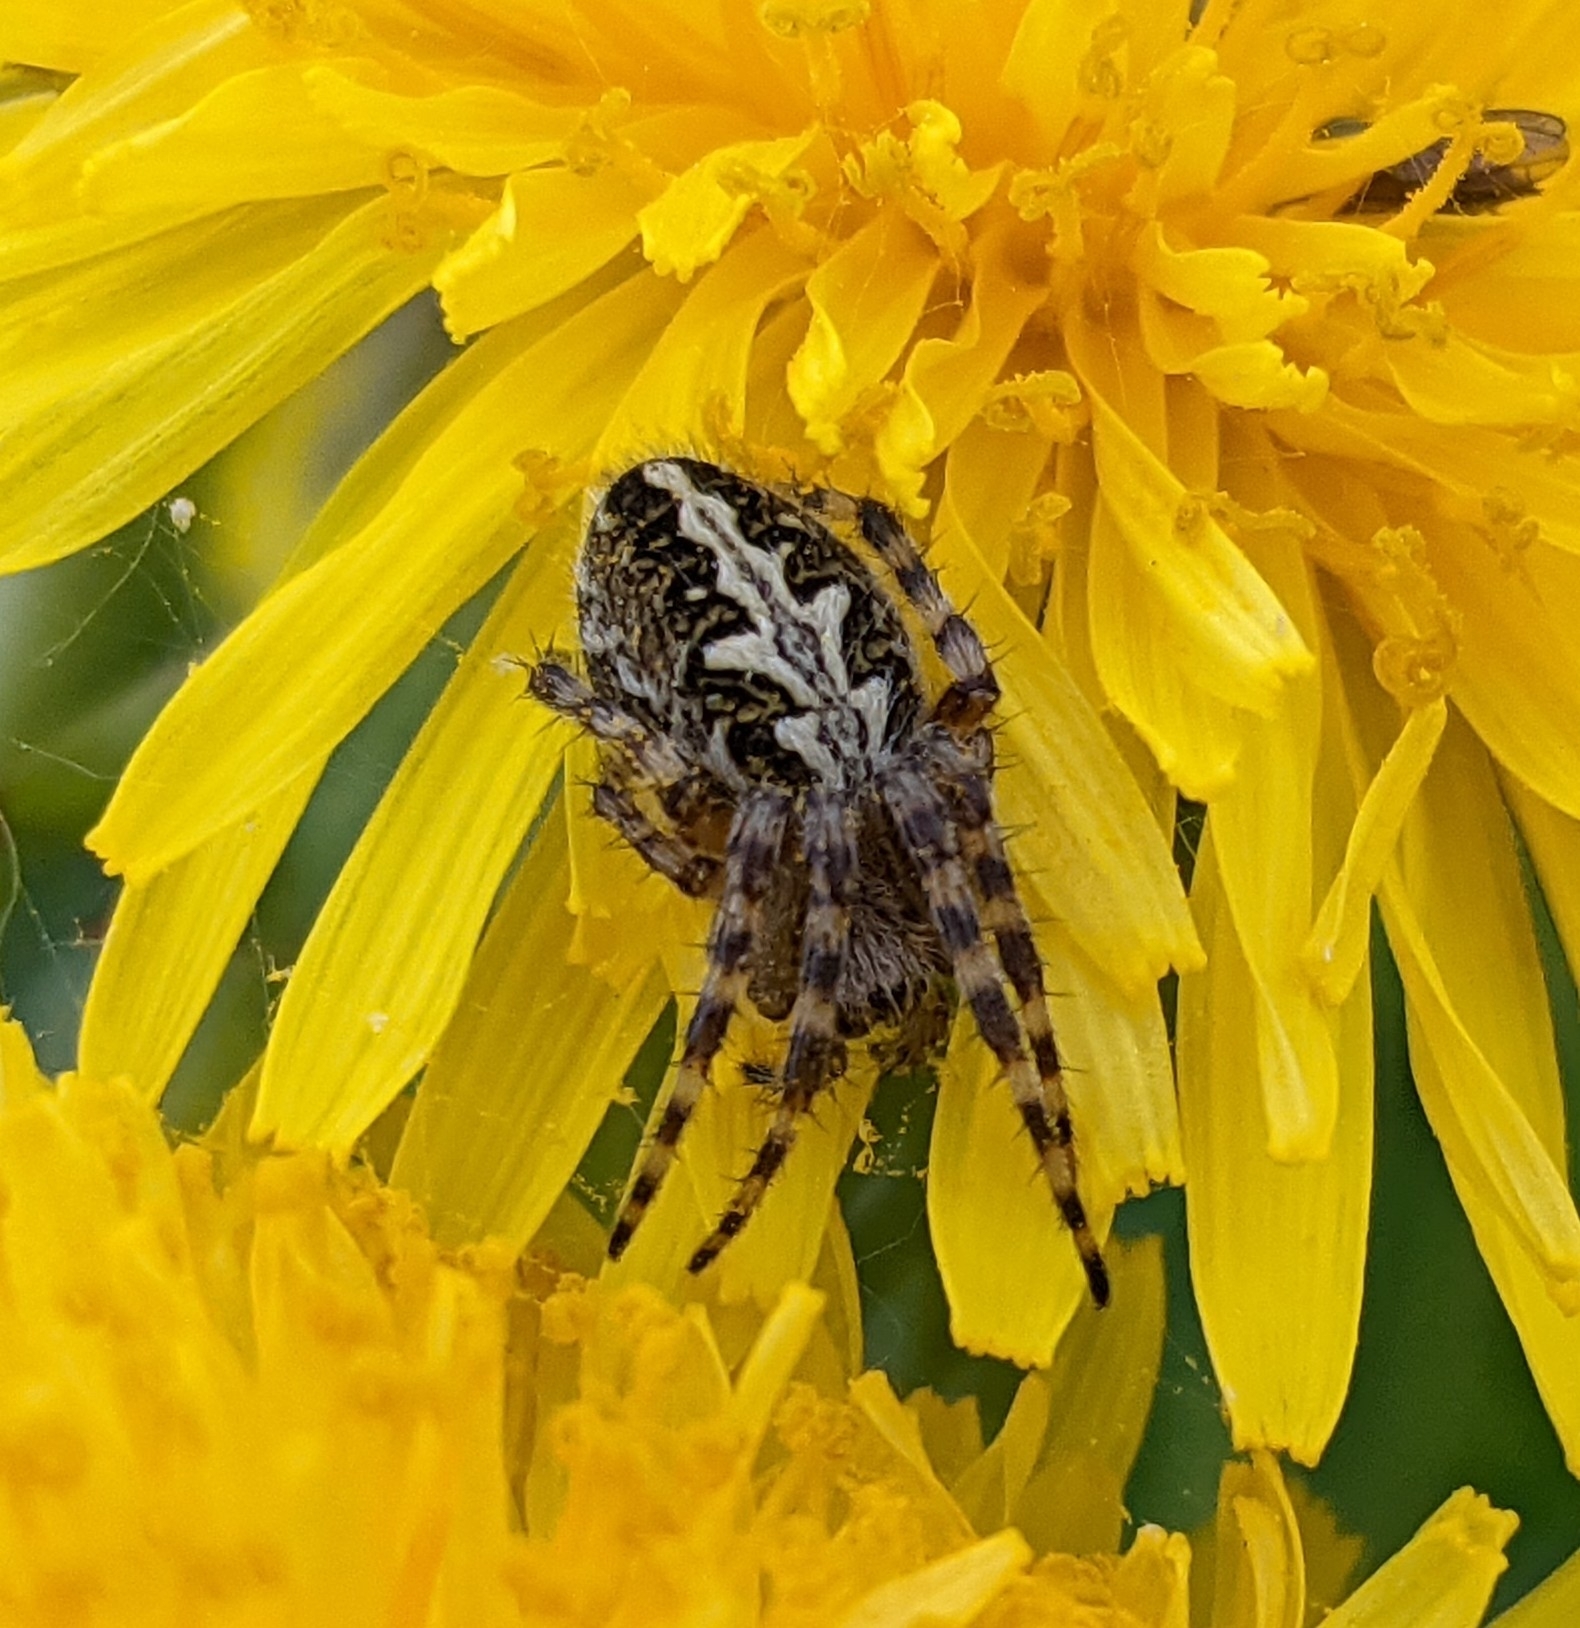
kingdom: Animalia
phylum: Arthropoda
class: Arachnida
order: Araneae
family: Araneidae
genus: Aculepeira
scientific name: Aculepeira ceropegia
